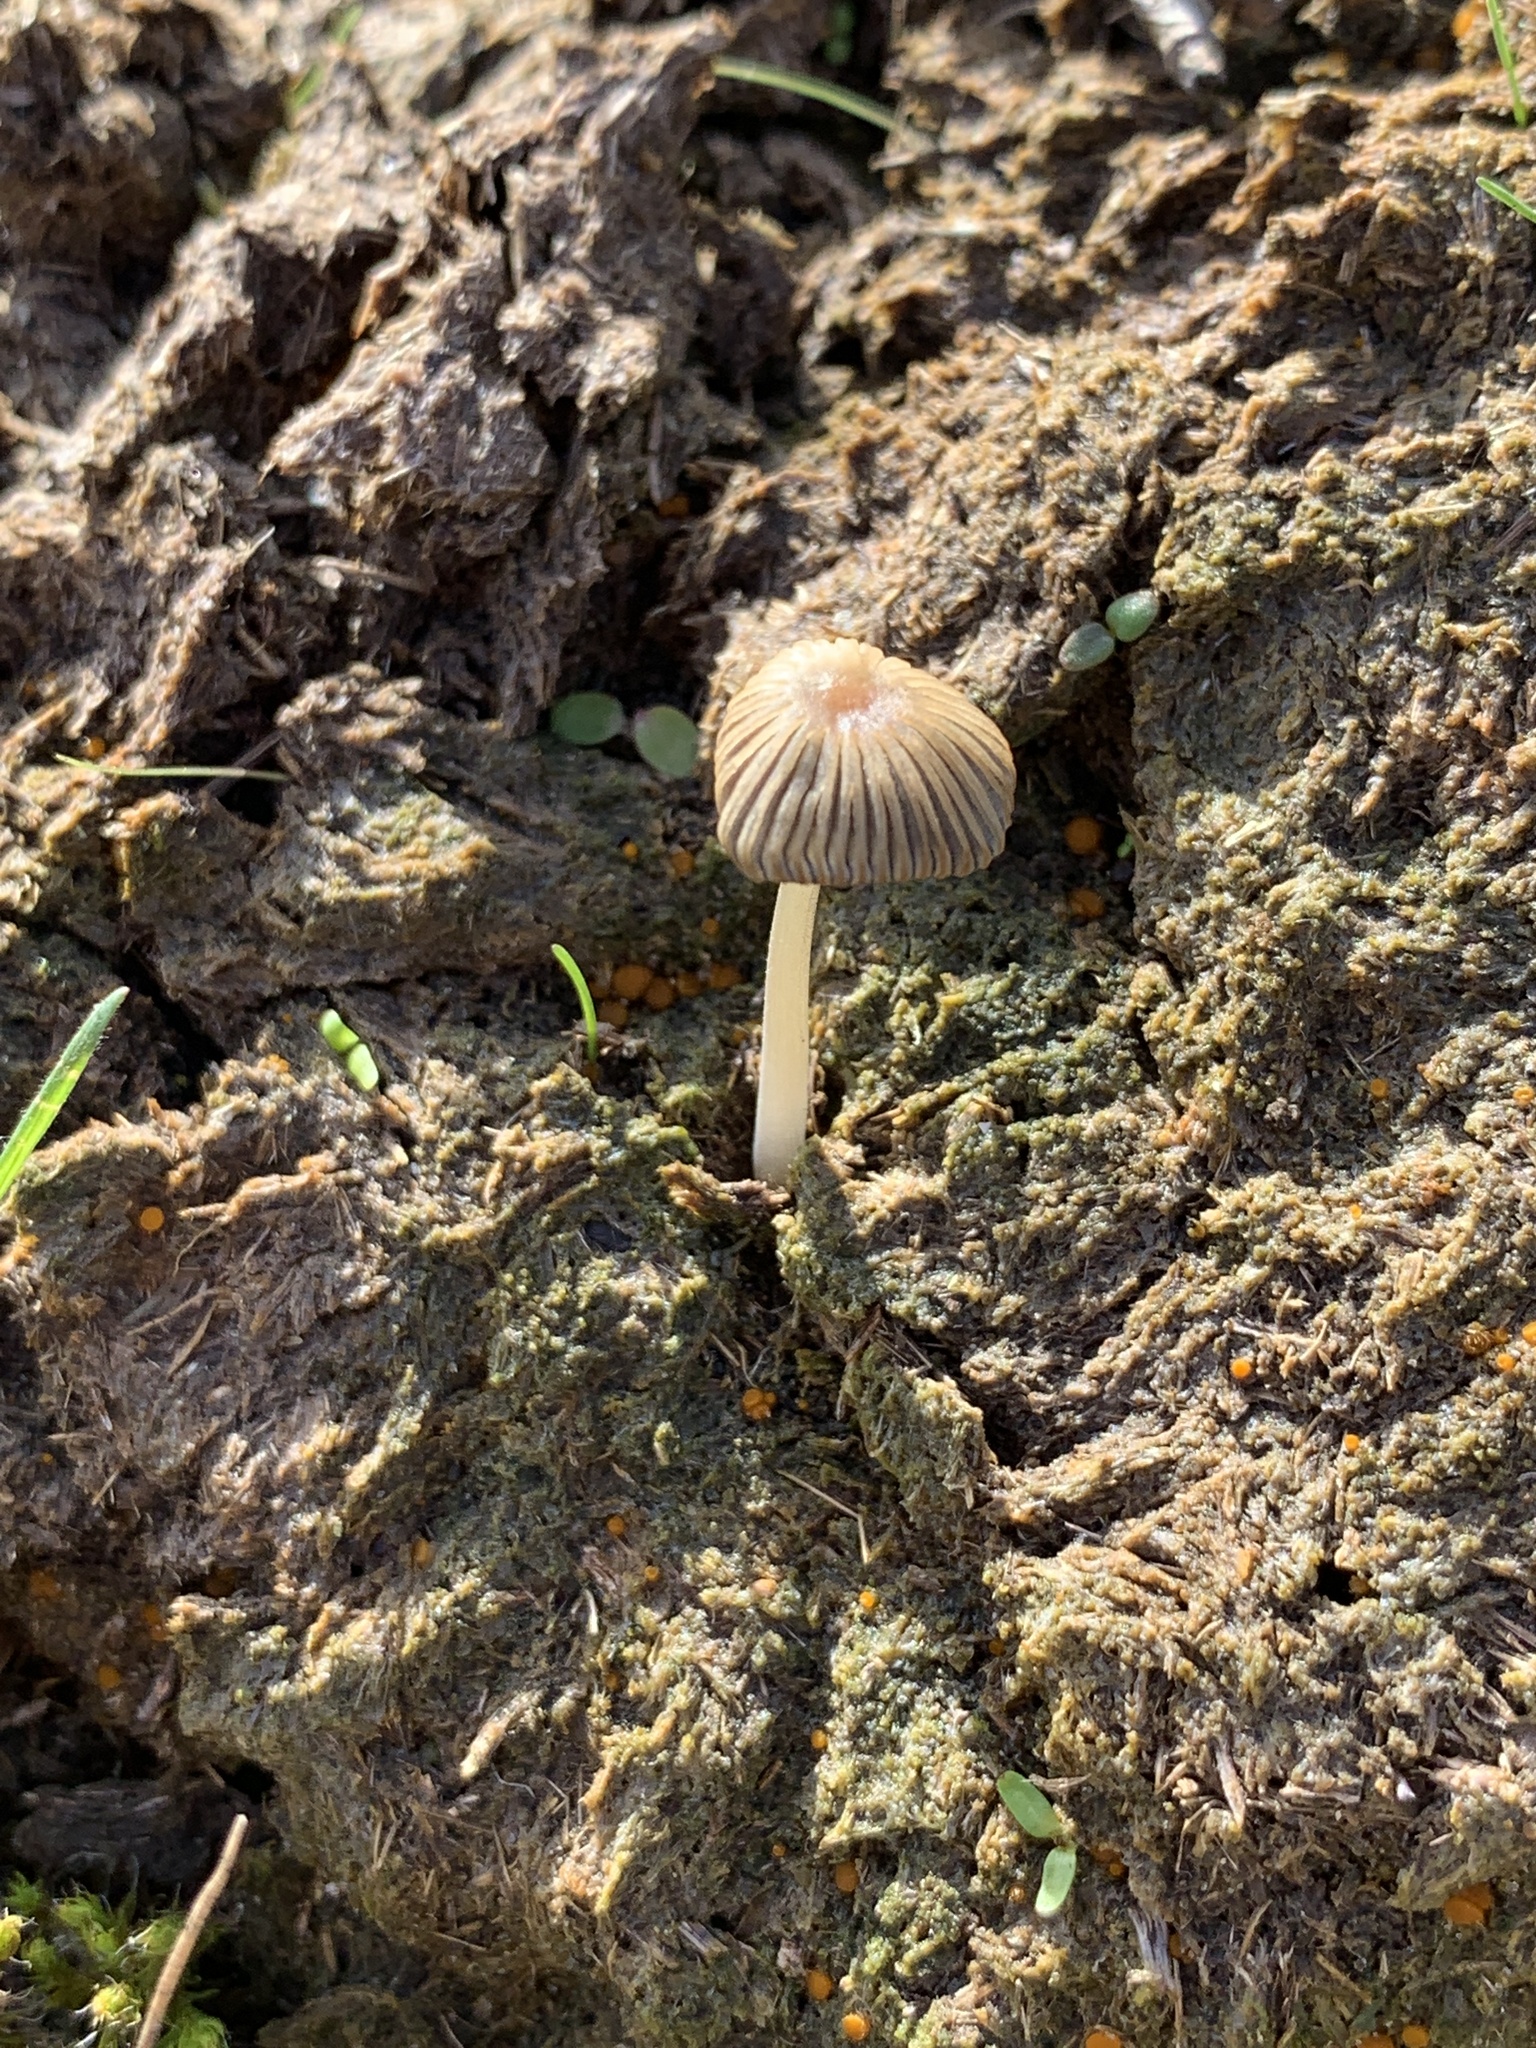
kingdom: Fungi
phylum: Basidiomycota
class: Agaricomycetes
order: Agaricales
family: Psathyrellaceae
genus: Parasola
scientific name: Parasola
